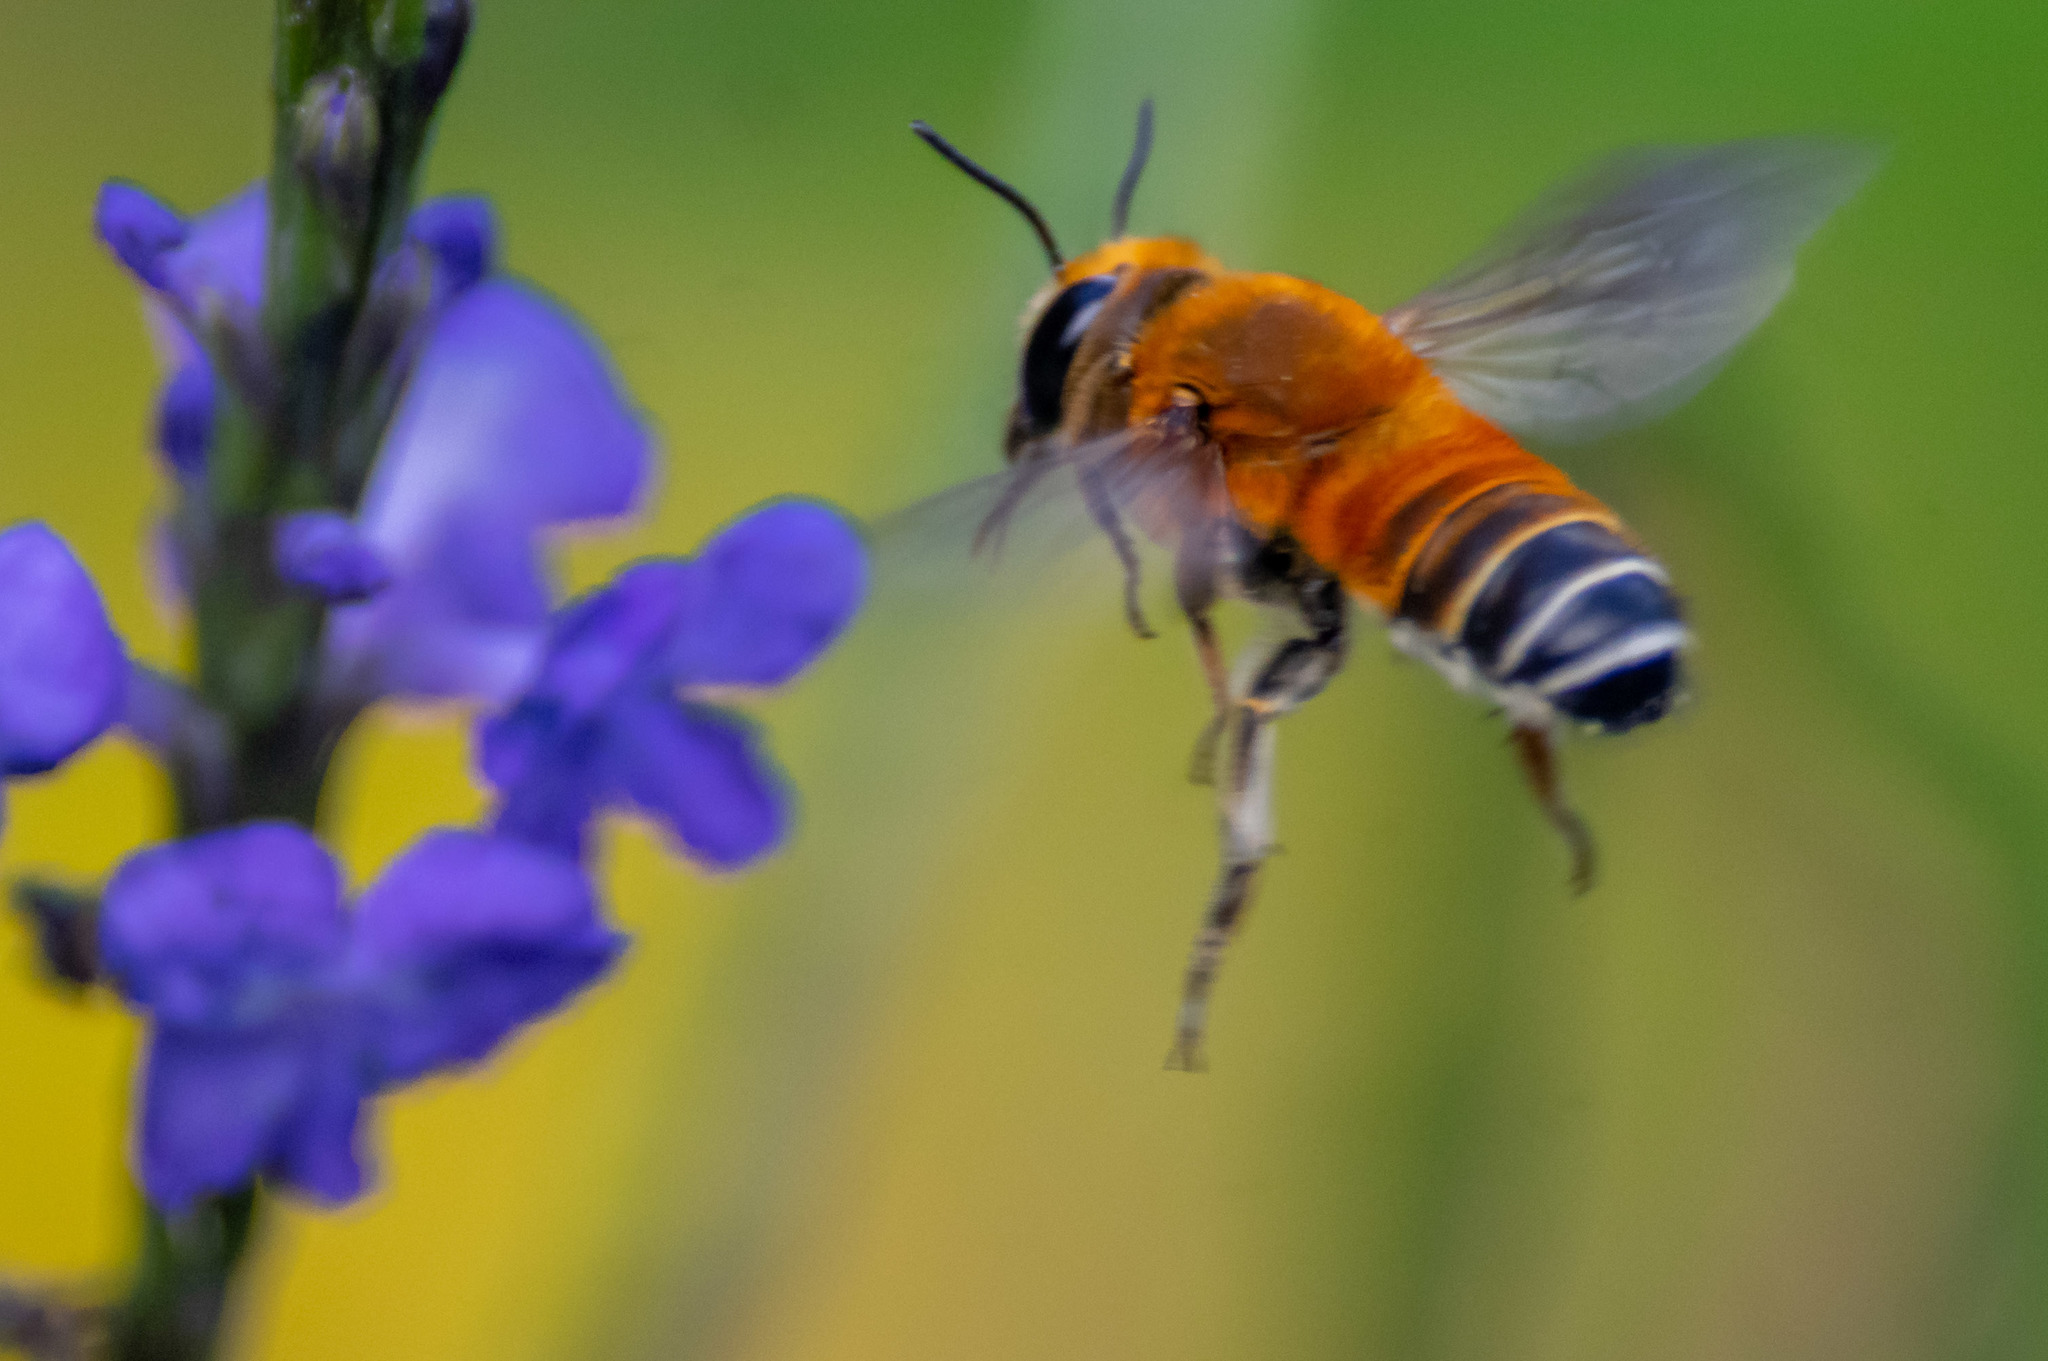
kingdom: Animalia
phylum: Arthropoda
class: Insecta
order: Hymenoptera
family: Megachilidae
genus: Megachile
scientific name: Megachile lanata
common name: Wooly wall bee
